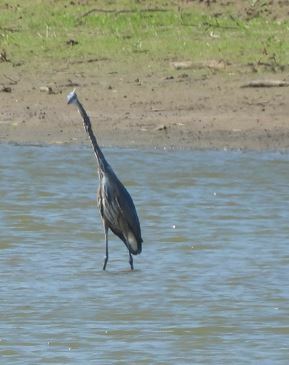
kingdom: Animalia
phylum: Chordata
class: Aves
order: Pelecaniformes
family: Ardeidae
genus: Ardea
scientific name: Ardea herodias
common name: Great blue heron
